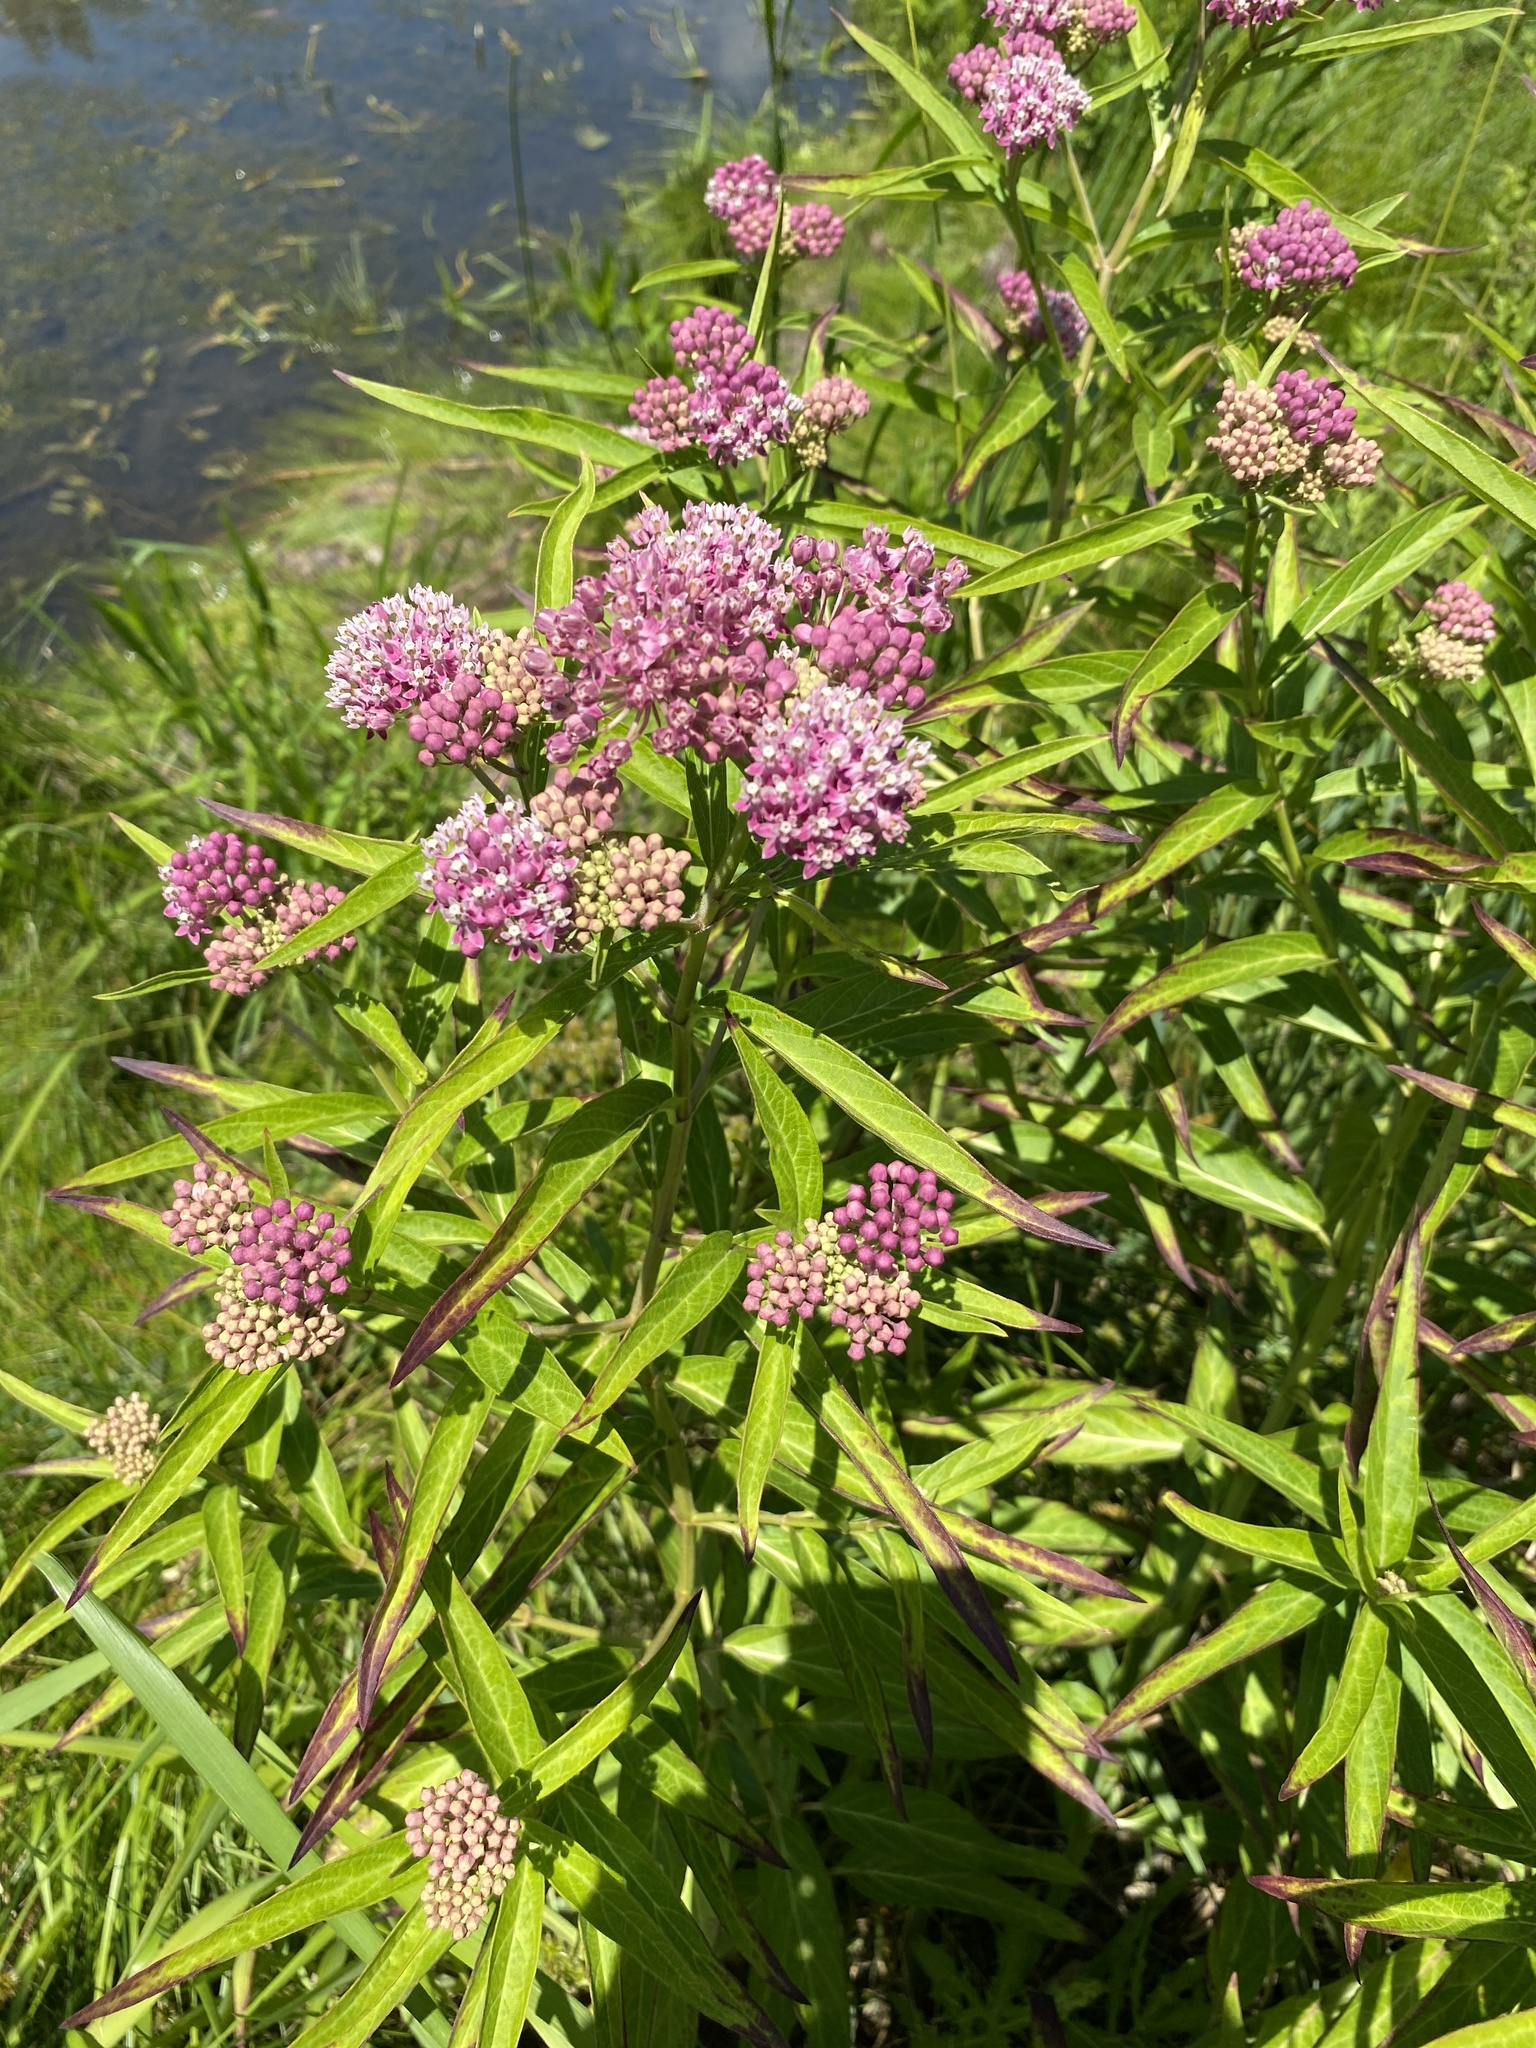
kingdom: Plantae
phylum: Tracheophyta
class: Magnoliopsida
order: Gentianales
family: Apocynaceae
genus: Asclepias
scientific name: Asclepias incarnata
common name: Swamp milkweed
